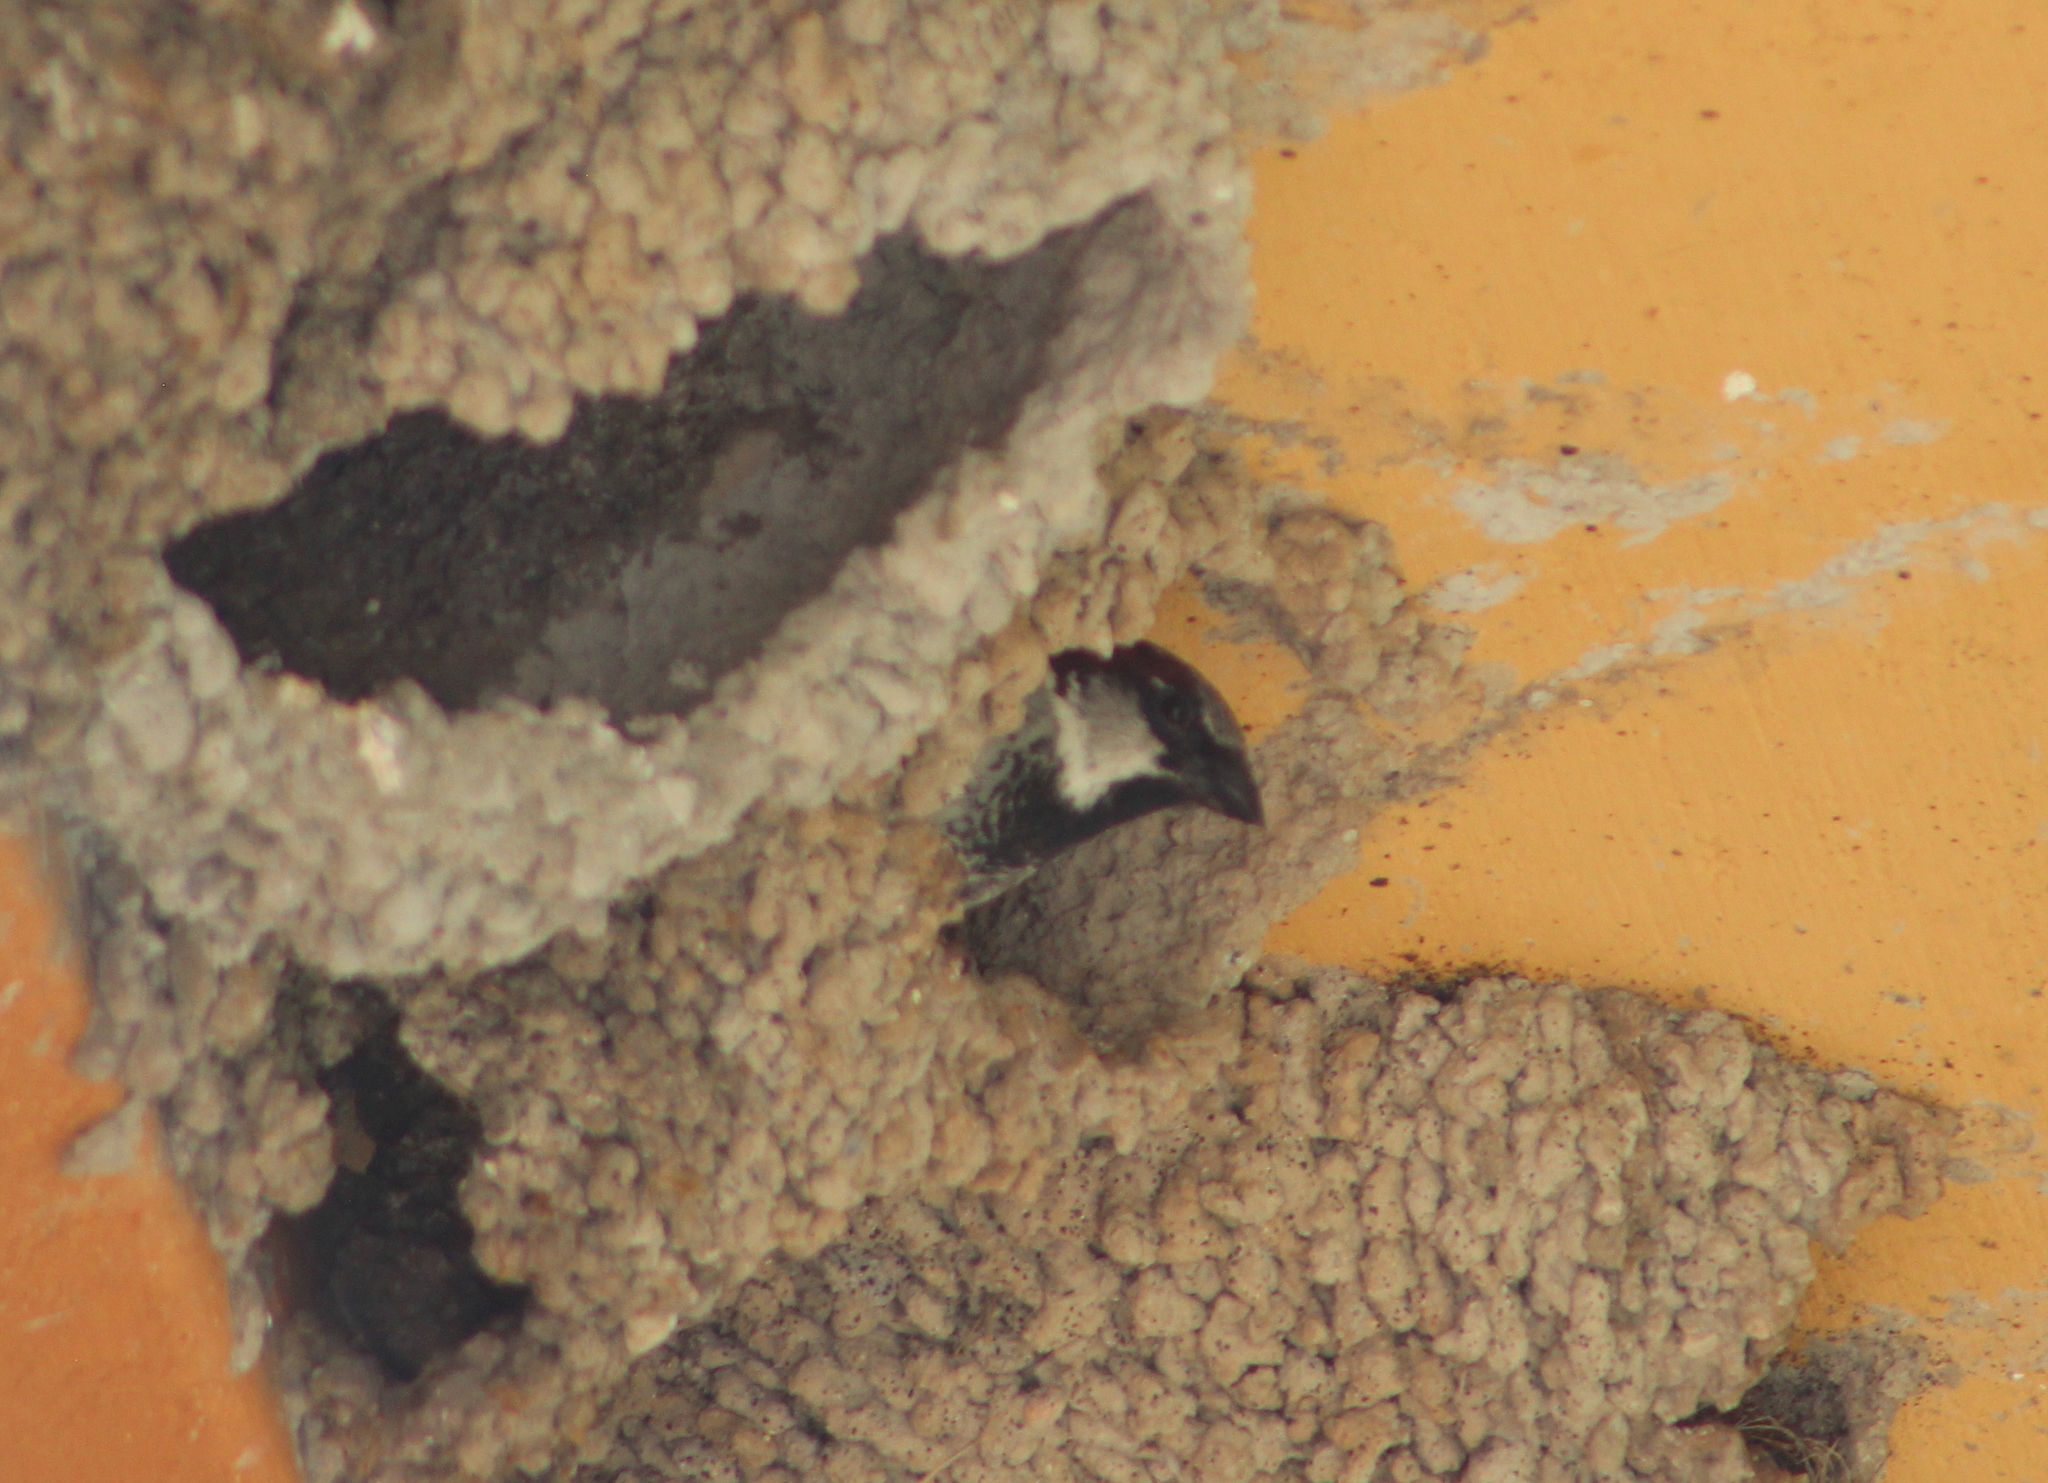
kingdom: Animalia
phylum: Chordata
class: Aves
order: Passeriformes
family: Passeridae
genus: Passer
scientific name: Passer domesticus
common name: House sparrow
